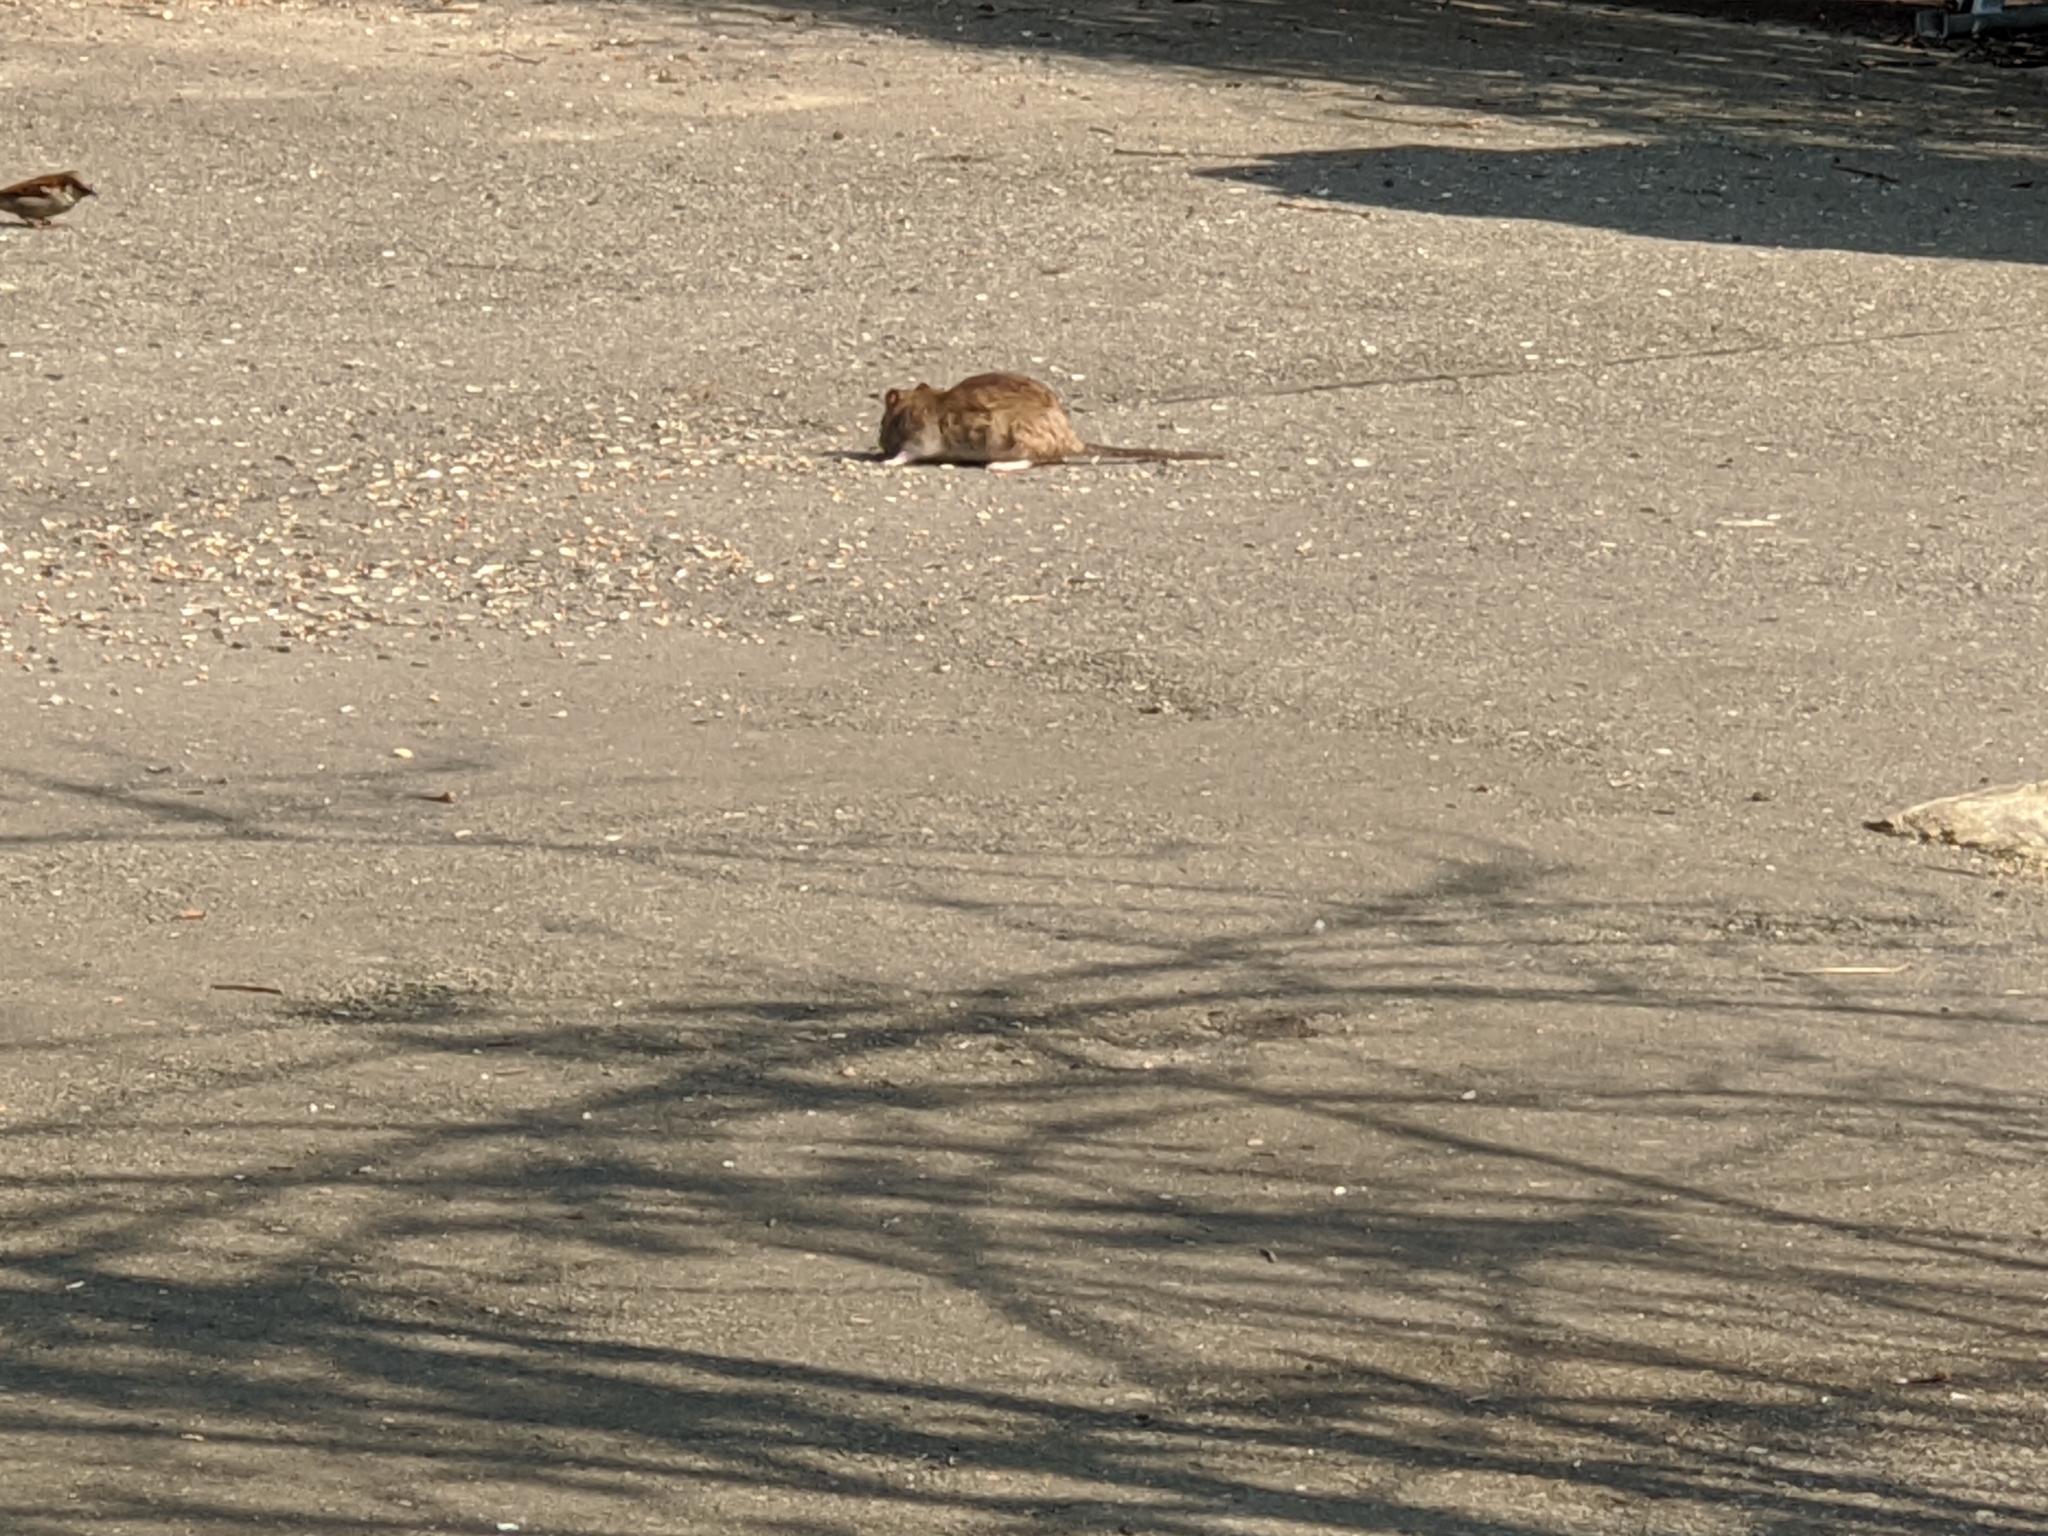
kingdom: Animalia
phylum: Chordata
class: Mammalia
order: Rodentia
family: Muridae
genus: Rattus
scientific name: Rattus norvegicus
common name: Brown rat
